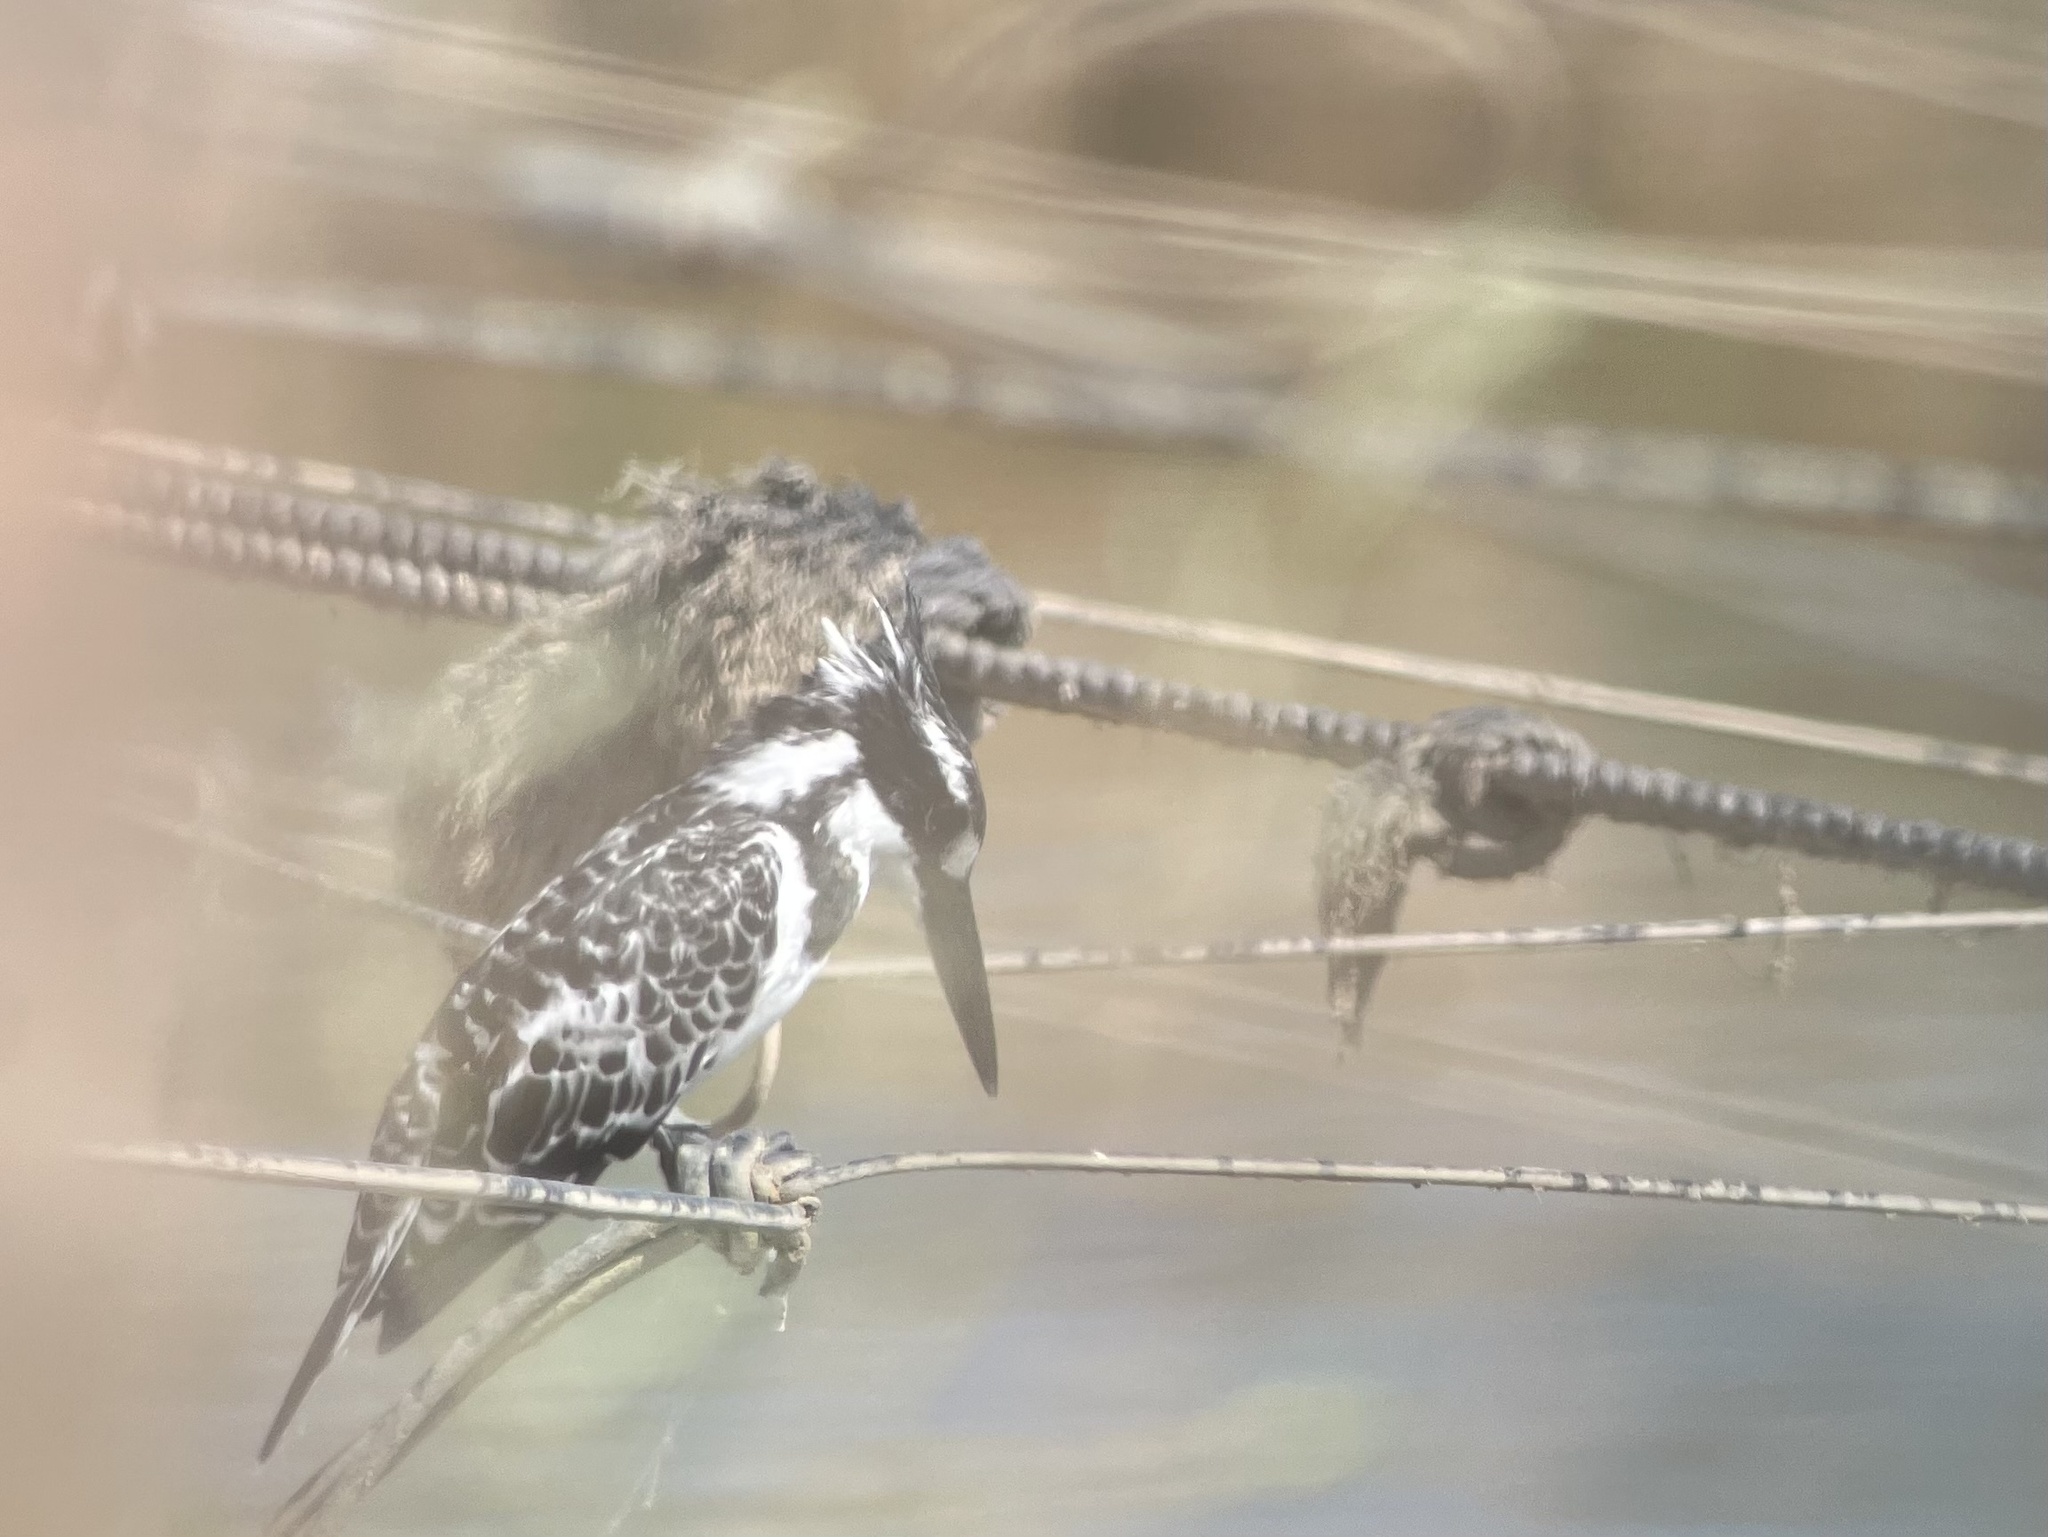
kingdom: Animalia
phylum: Chordata
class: Aves
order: Coraciiformes
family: Alcedinidae
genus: Ceryle
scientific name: Ceryle rudis
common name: Pied kingfisher
